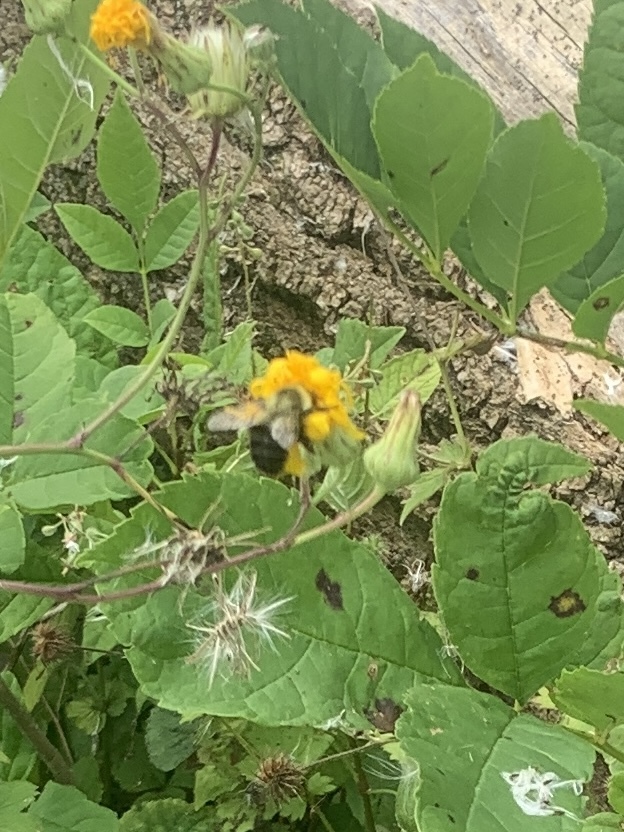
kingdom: Animalia
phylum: Arthropoda
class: Insecta
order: Hymenoptera
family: Apidae
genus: Bombus
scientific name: Bombus impatiens
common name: Common eastern bumble bee
